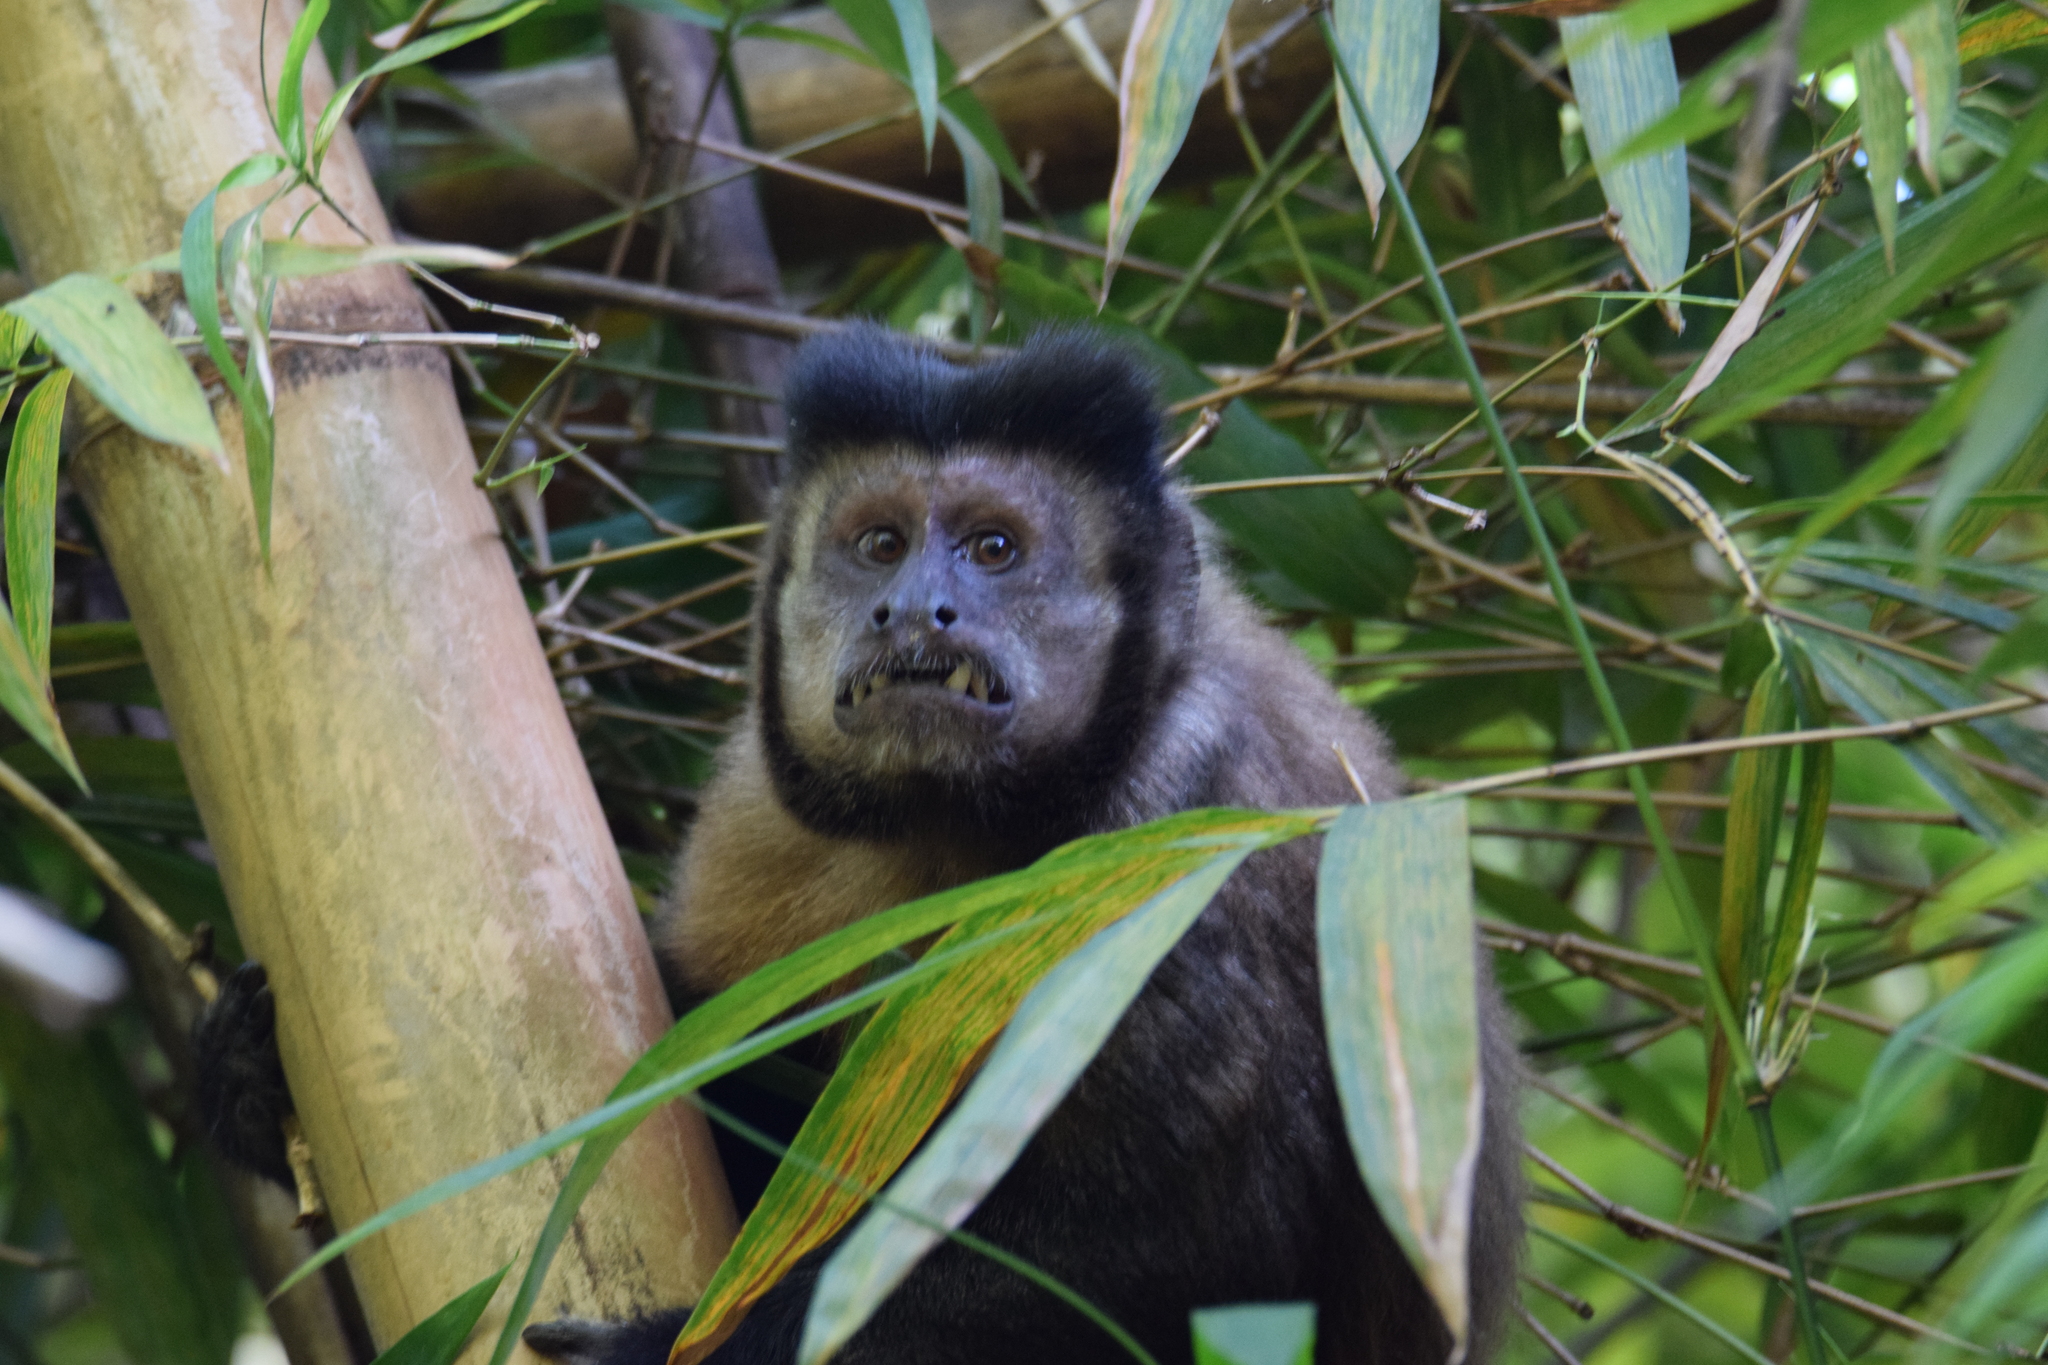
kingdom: Animalia
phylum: Chordata
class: Mammalia
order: Primates
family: Cebidae
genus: Sapajus
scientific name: Sapajus nigritus
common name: Black capuchin
